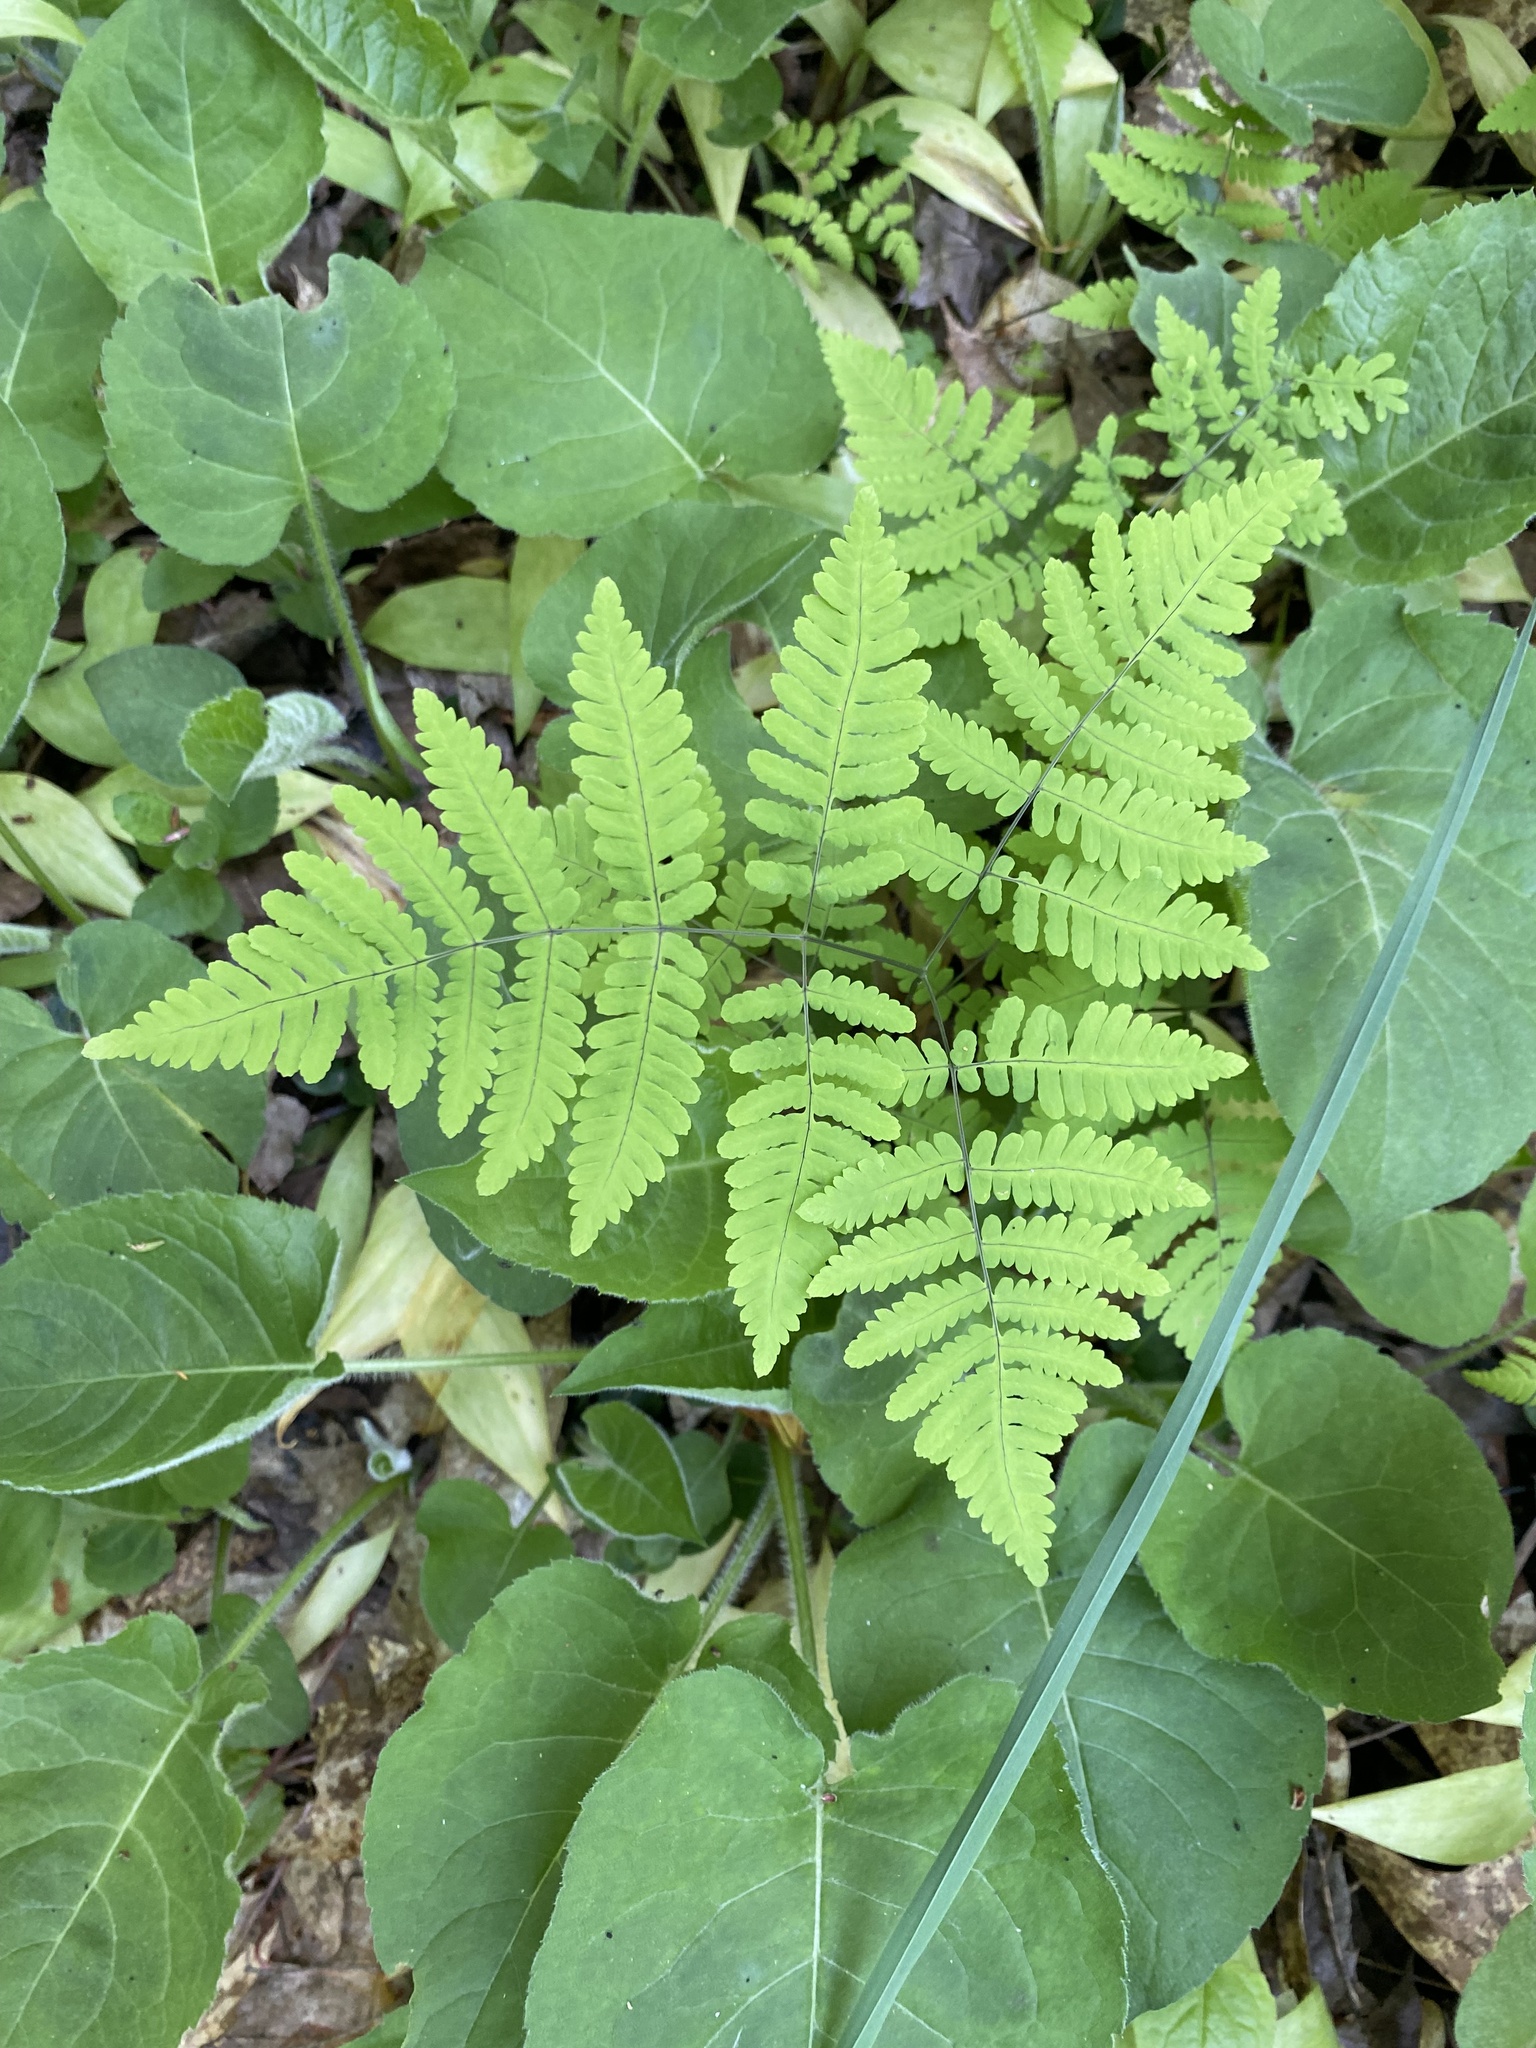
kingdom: Plantae
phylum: Tracheophyta
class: Polypodiopsida
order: Polypodiales
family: Cystopteridaceae
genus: Gymnocarpium
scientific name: Gymnocarpium dryopteris
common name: Oak fern
